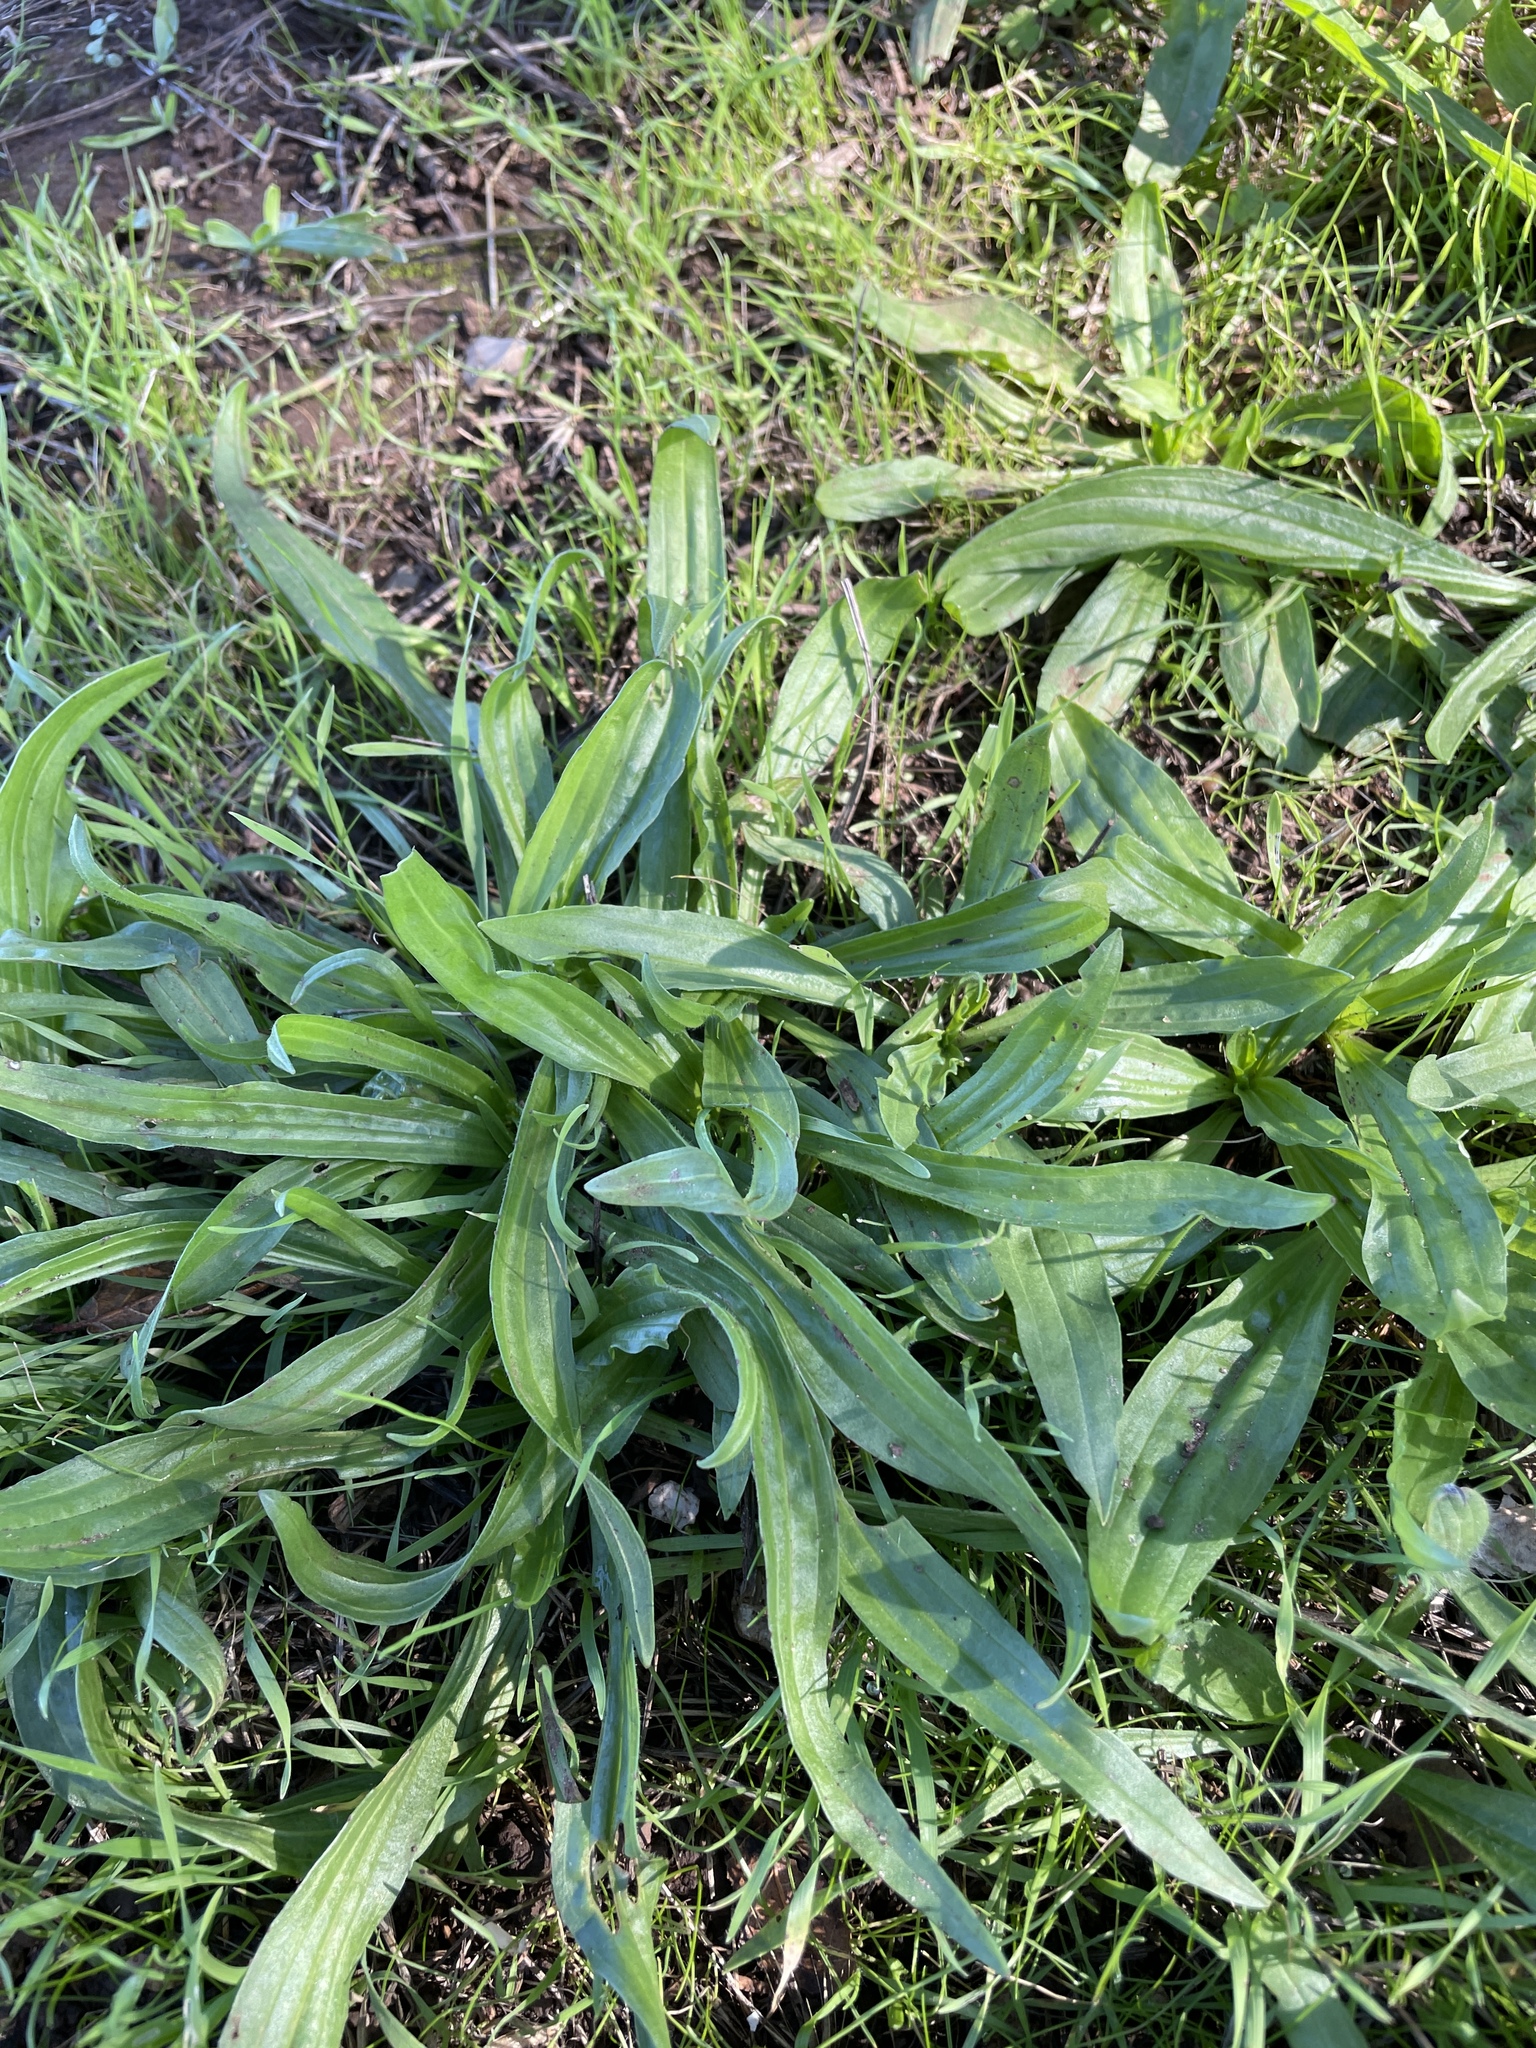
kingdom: Plantae
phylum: Tracheophyta
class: Magnoliopsida
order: Lamiales
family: Plantaginaceae
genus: Plantago
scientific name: Plantago lanceolata
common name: Ribwort plantain
